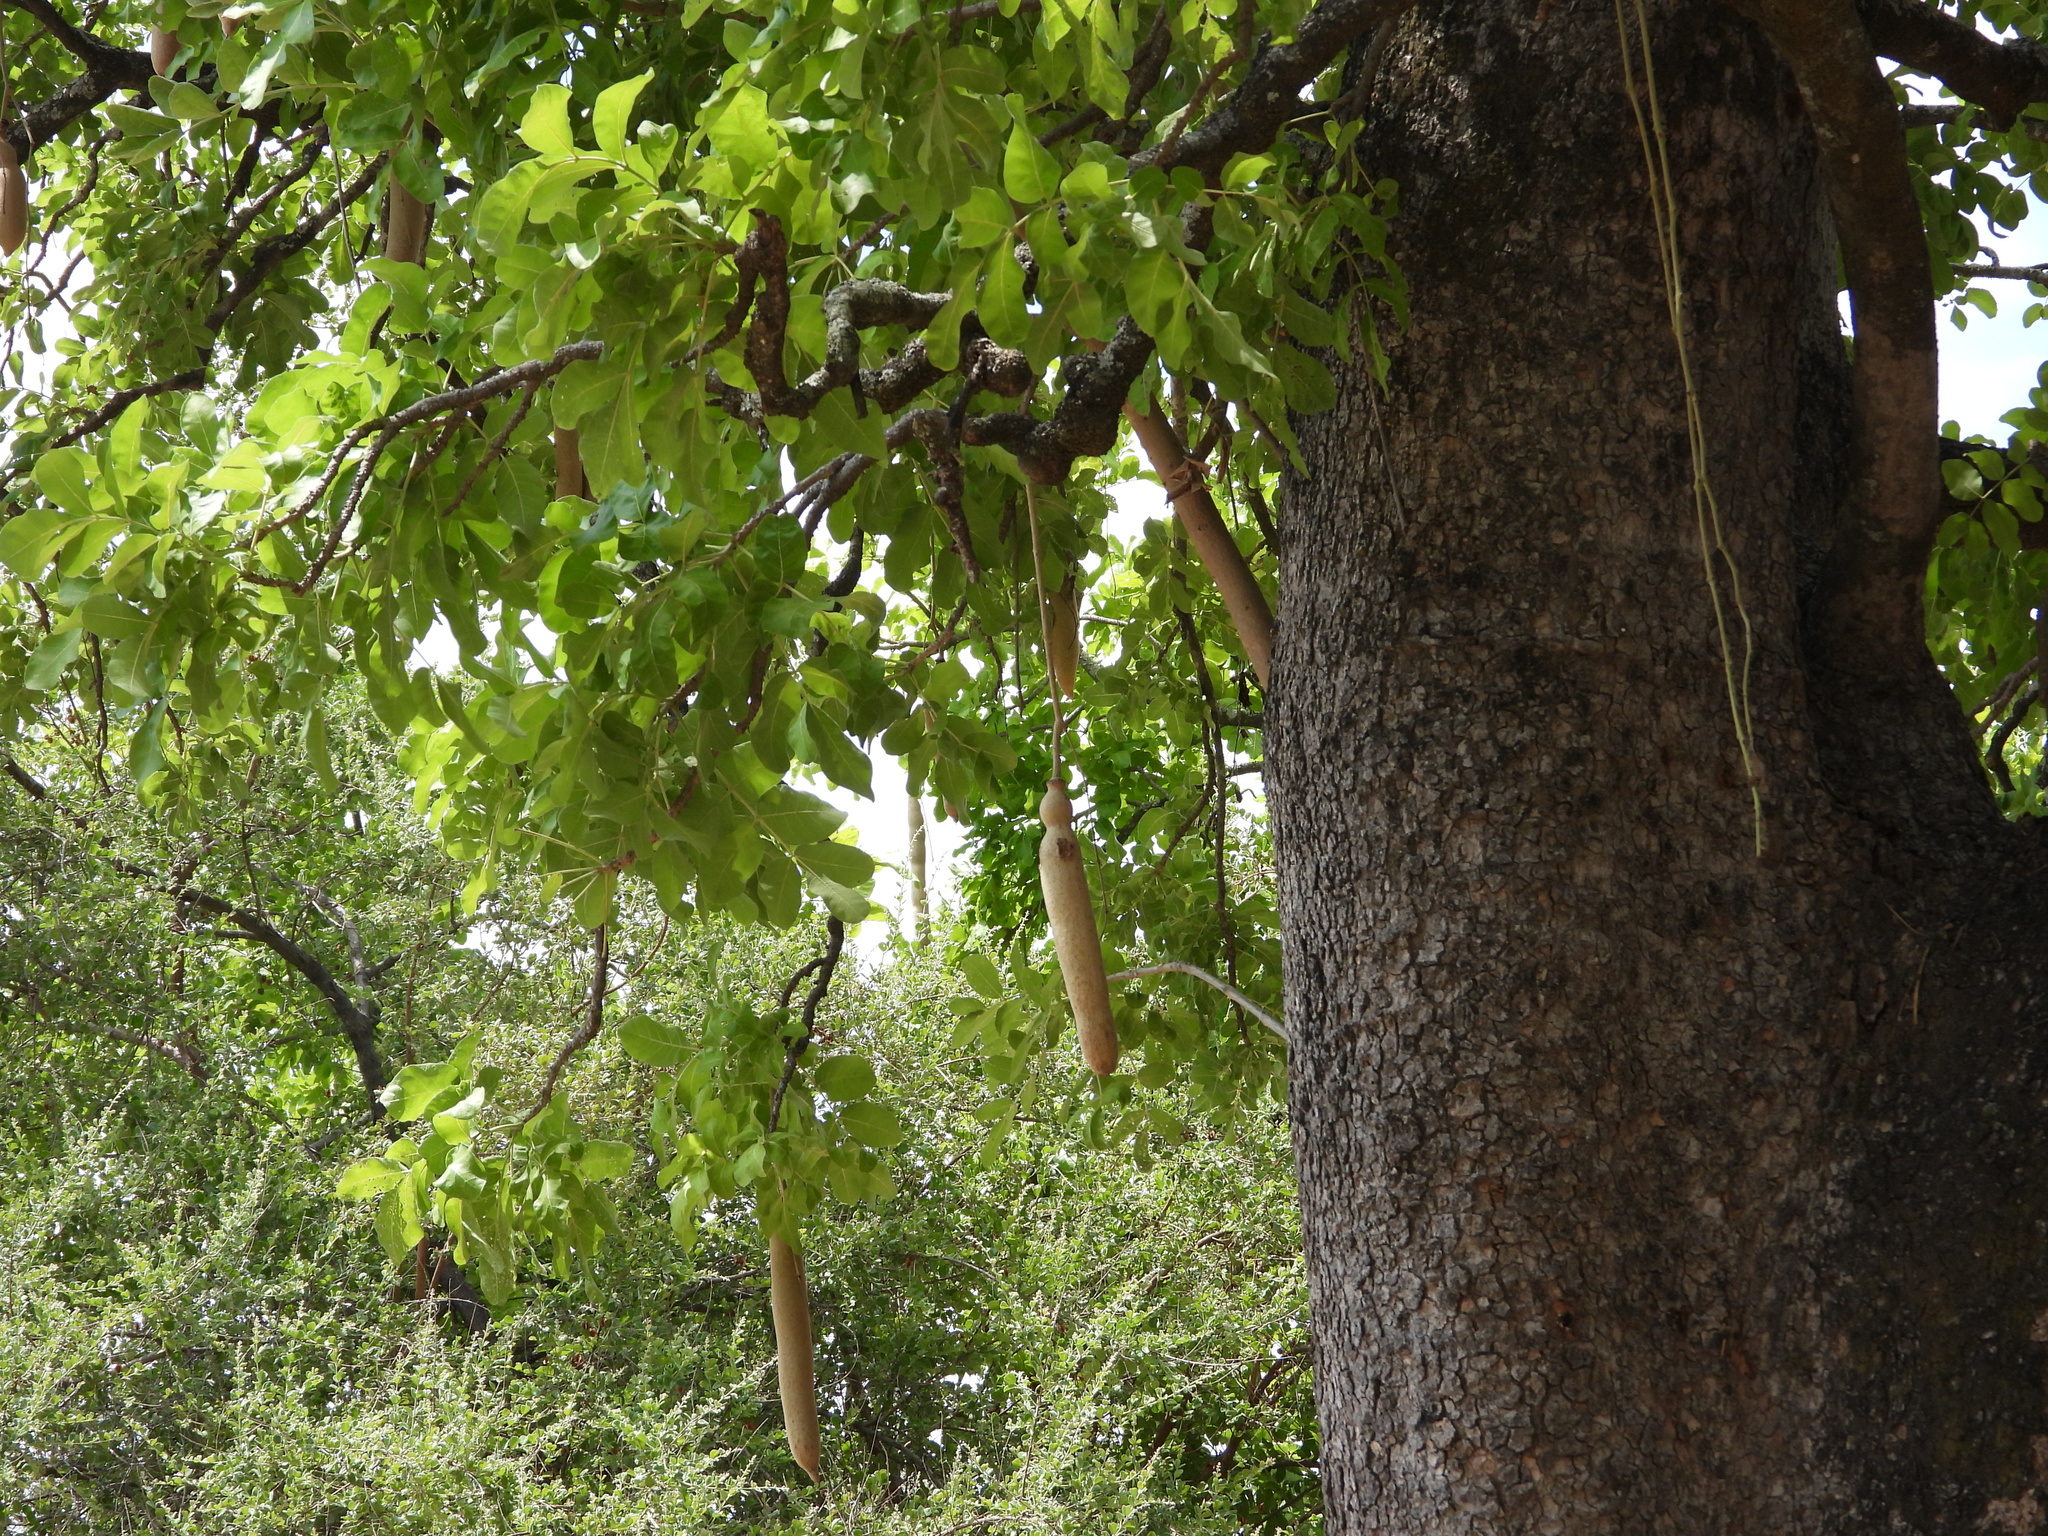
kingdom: Plantae
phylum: Tracheophyta
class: Magnoliopsida
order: Lamiales
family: Bignoniaceae
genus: Kigelia
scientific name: Kigelia africana
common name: Sausage tree
